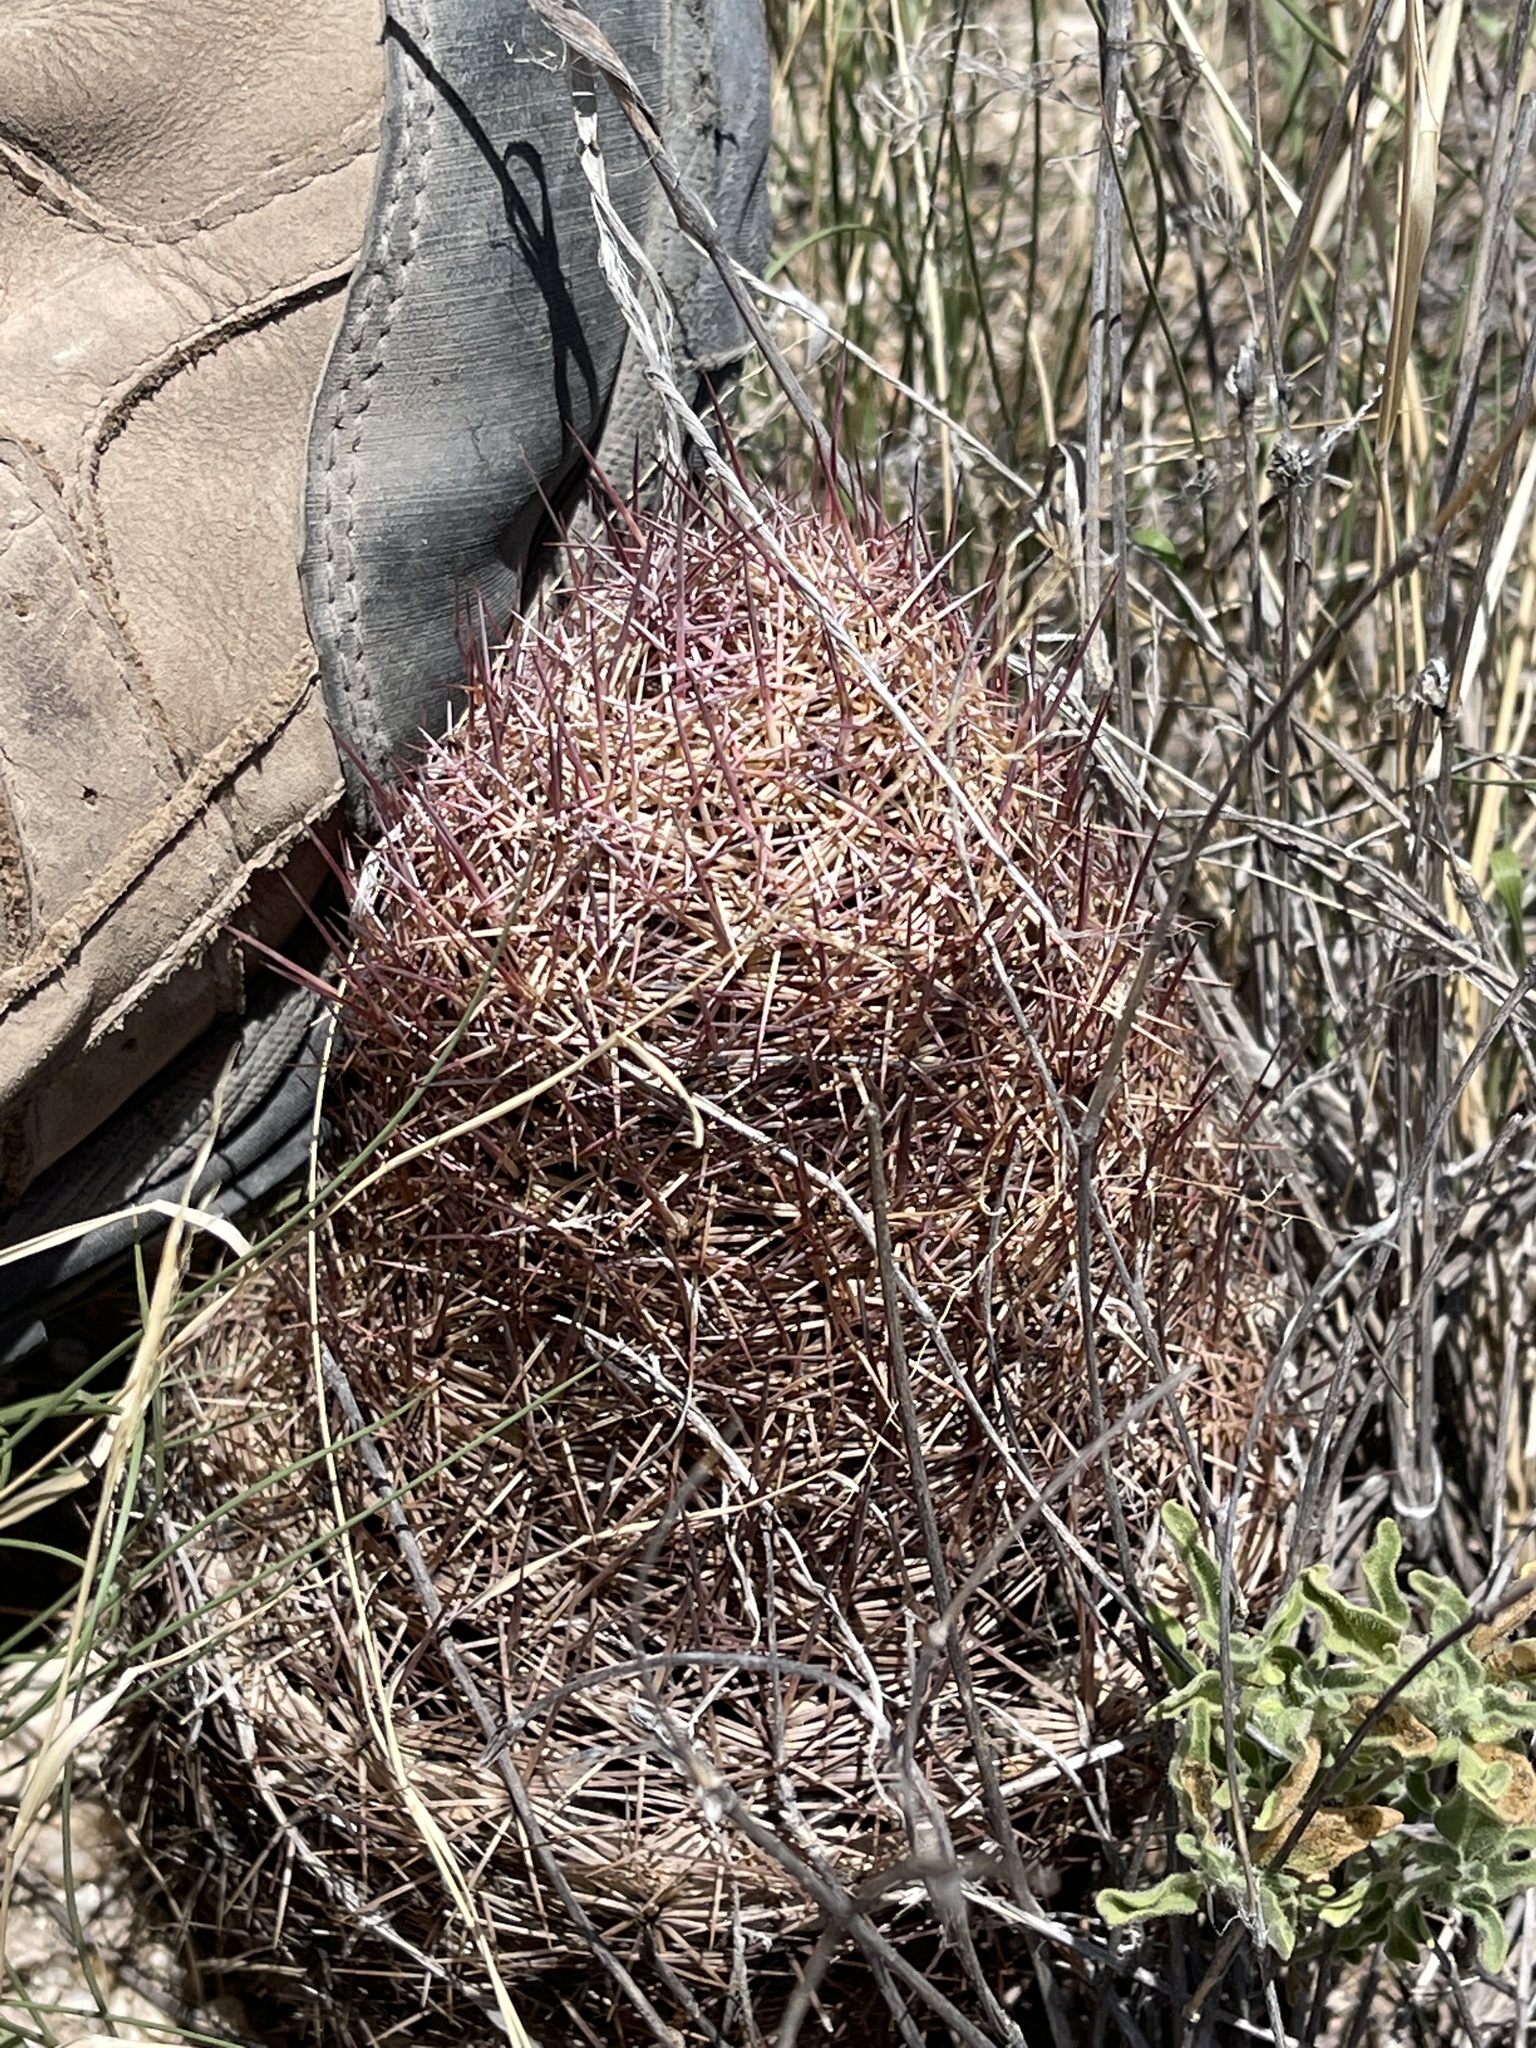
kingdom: Plantae
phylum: Tracheophyta
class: Magnoliopsida
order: Caryophyllales
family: Cactaceae
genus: Sclerocactus
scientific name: Sclerocactus johnsonii
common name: Eight-spine fishhook cactus
